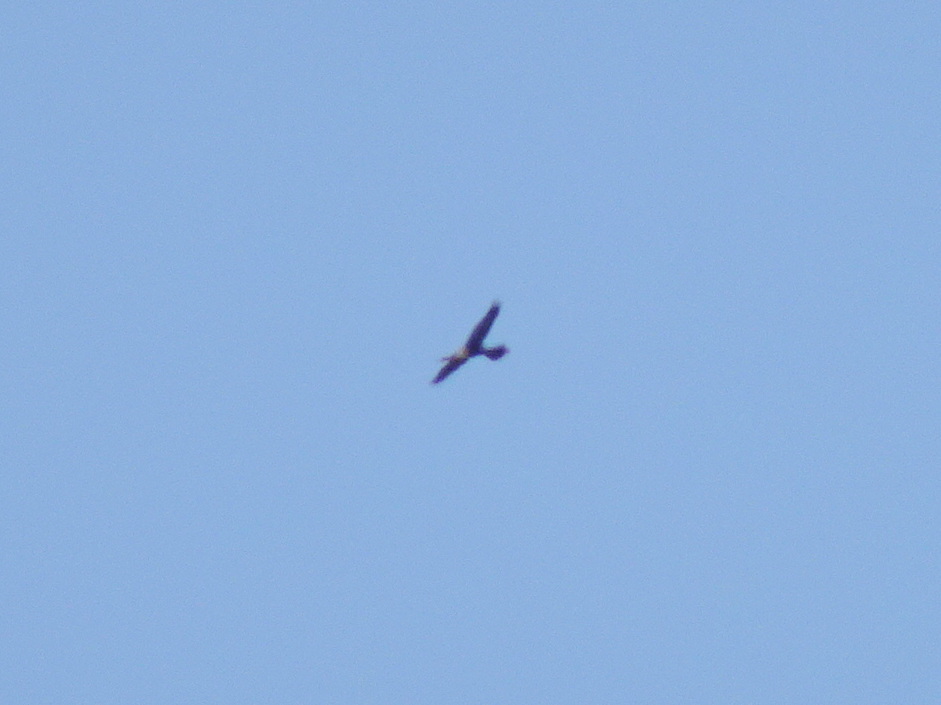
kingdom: Animalia
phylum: Chordata
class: Aves
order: Suliformes
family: Anhingidae
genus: Anhinga
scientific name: Anhinga anhinga
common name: Anhinga
